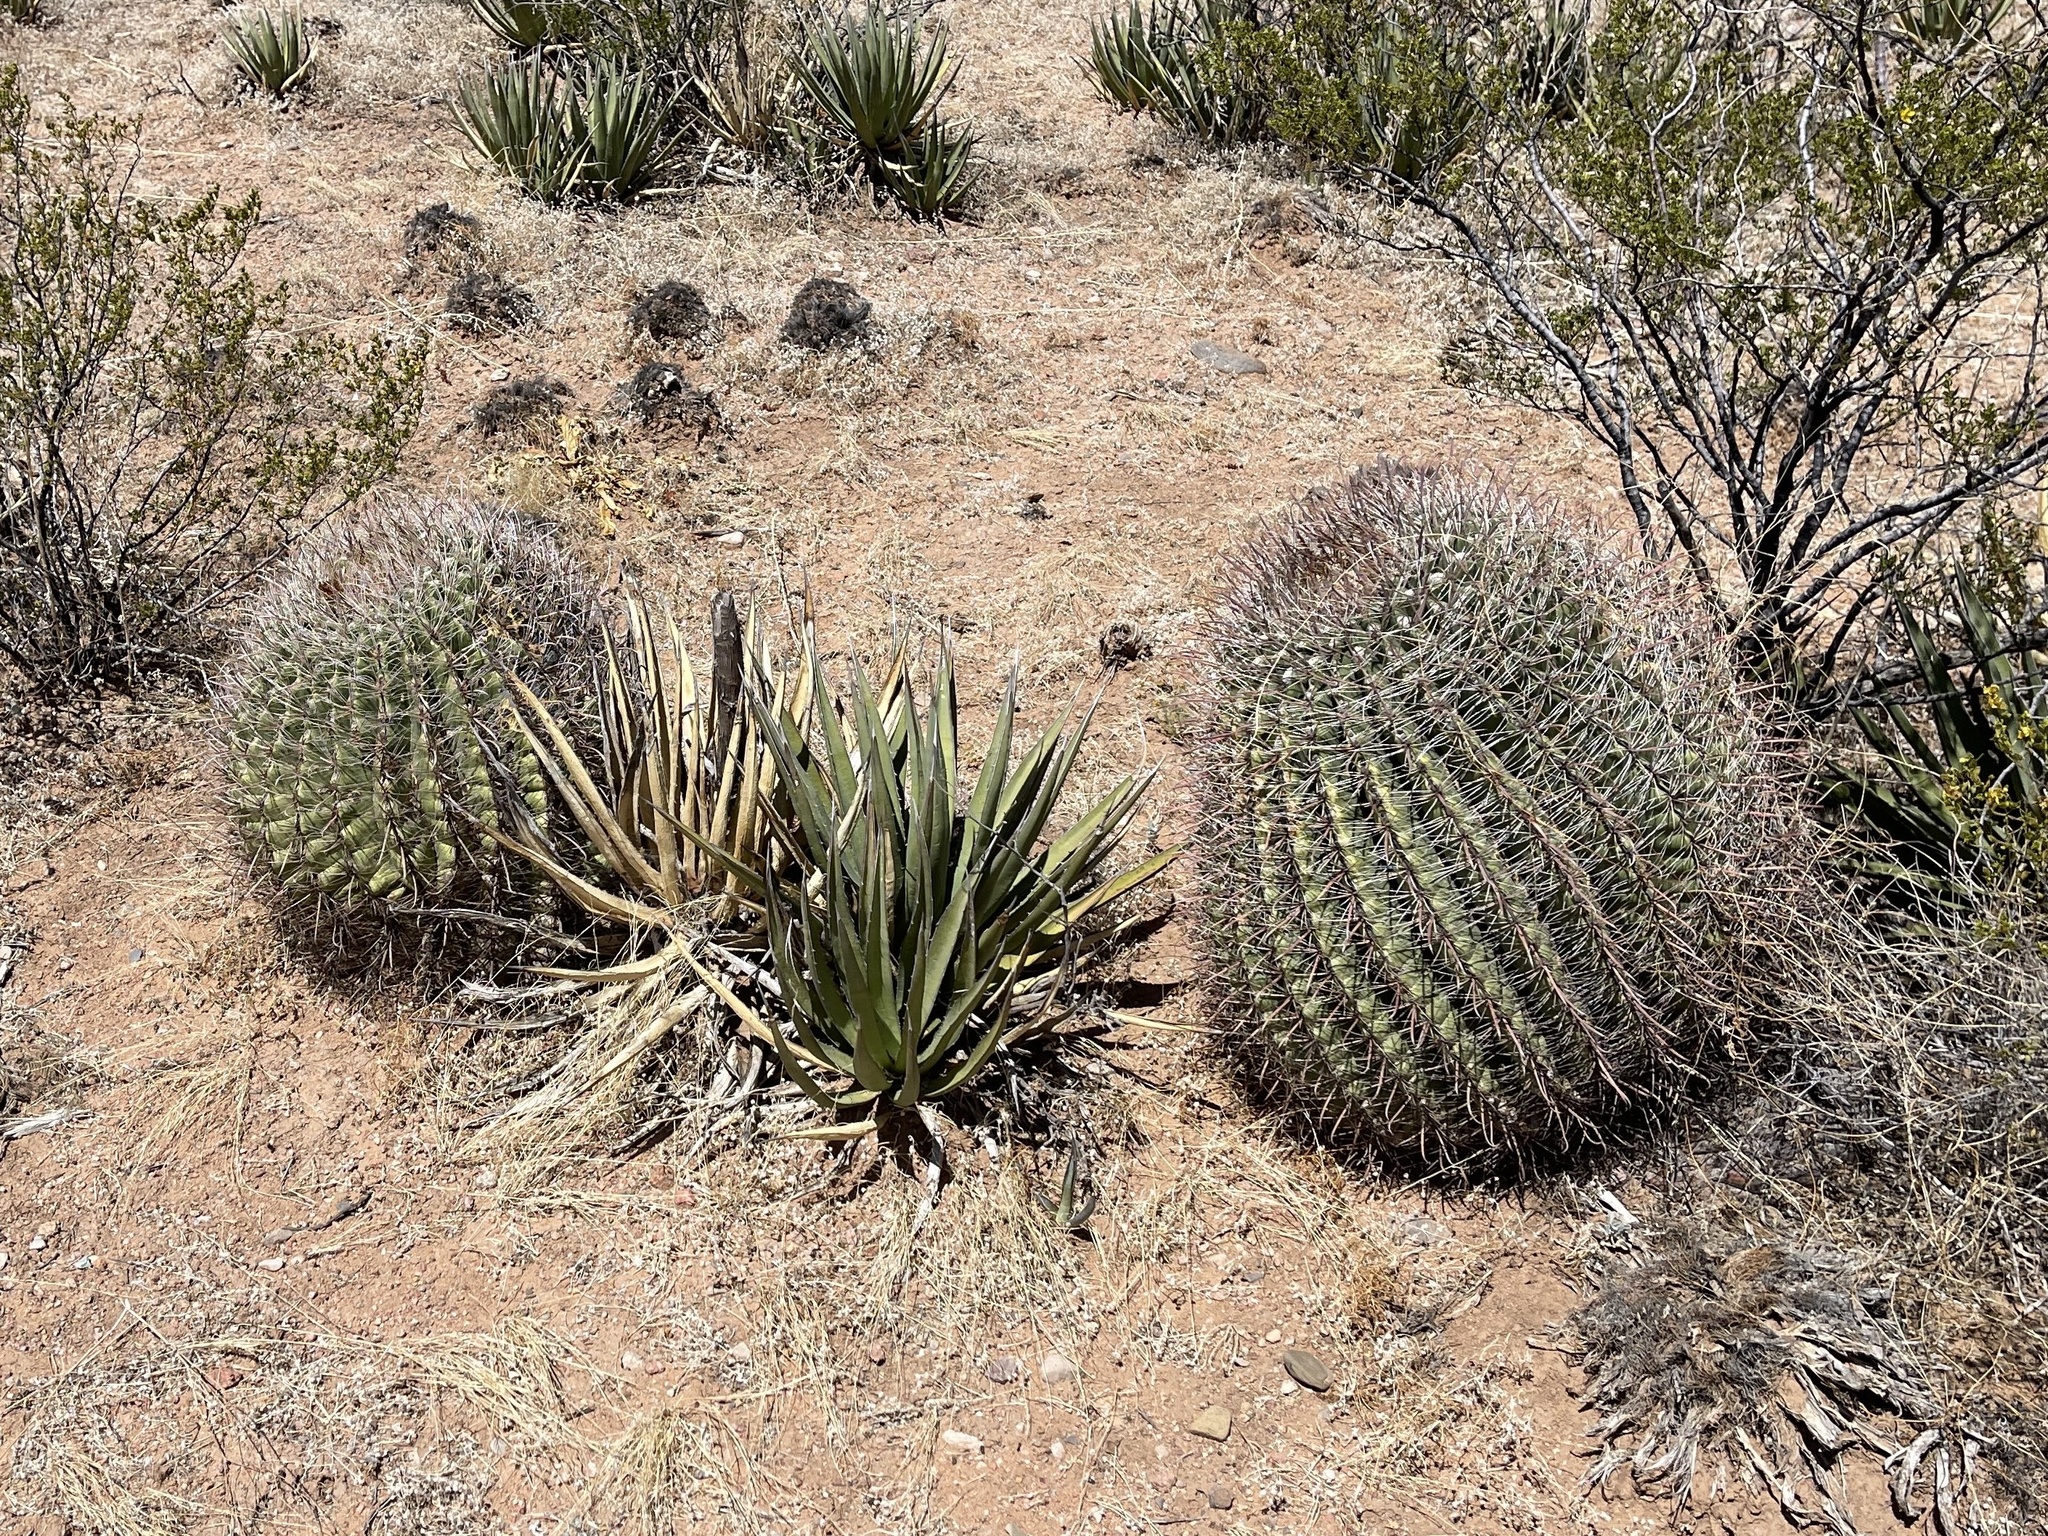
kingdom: Plantae
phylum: Tracheophyta
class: Magnoliopsida
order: Caryophyllales
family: Cactaceae
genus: Ferocactus
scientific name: Ferocactus wislizeni
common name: Candy barrel cactus
